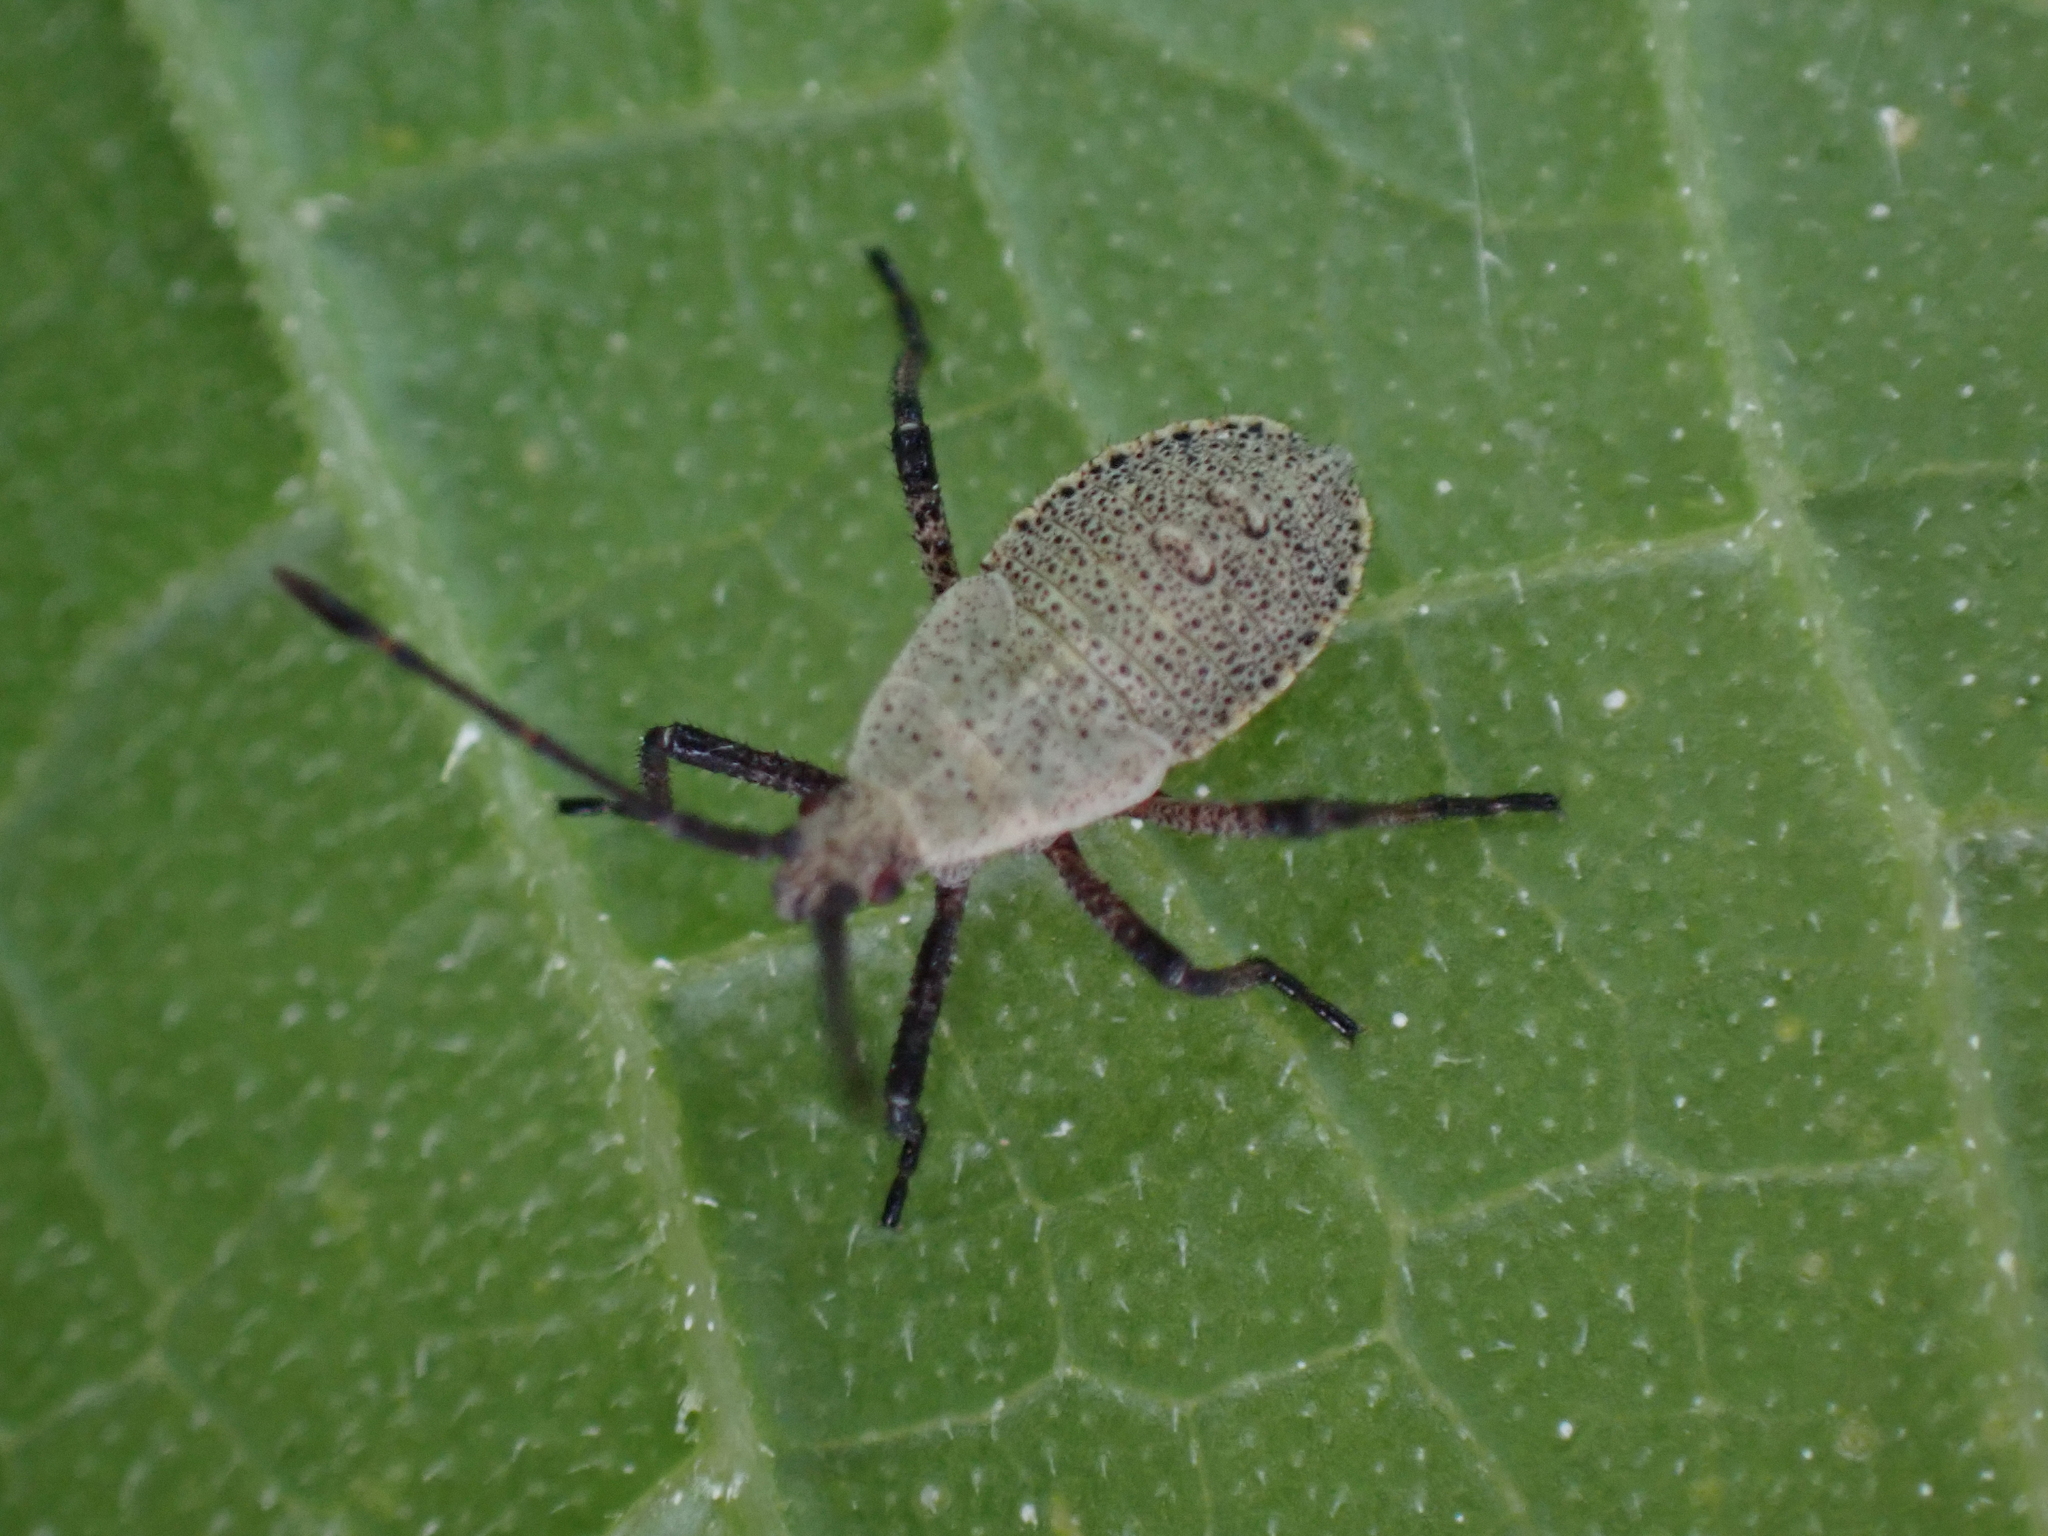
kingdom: Animalia
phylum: Arthropoda
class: Insecta
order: Hemiptera
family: Coreidae
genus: Anasa
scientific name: Anasa tristis
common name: Squash bug
